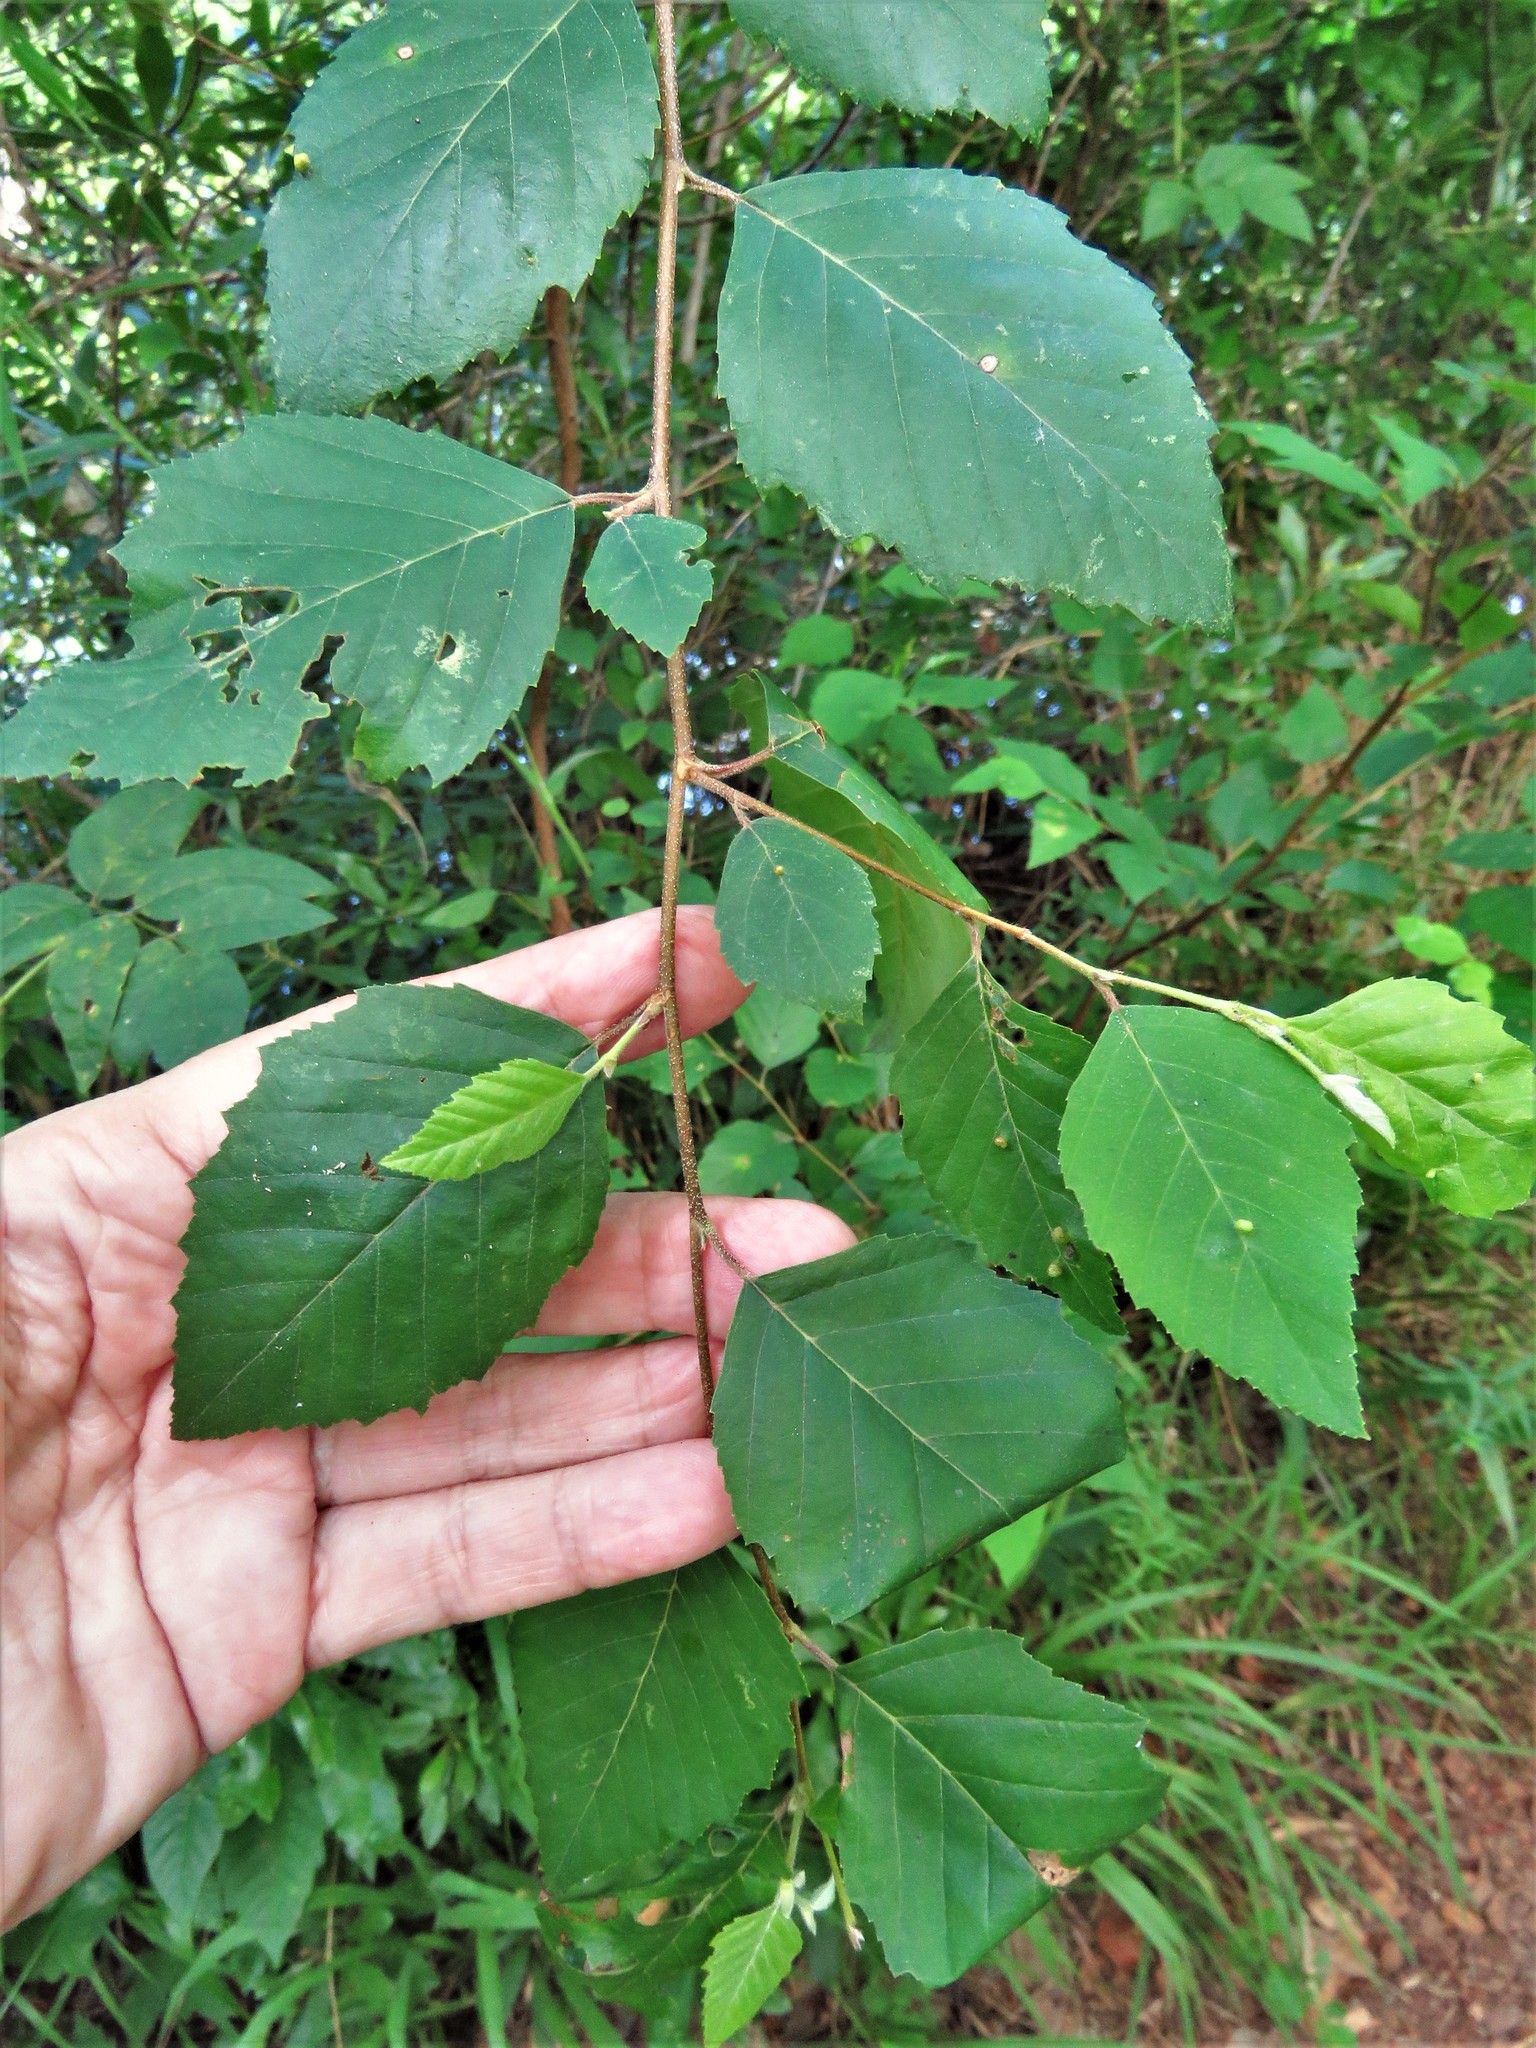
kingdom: Plantae
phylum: Tracheophyta
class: Magnoliopsida
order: Fagales
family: Betulaceae
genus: Betula
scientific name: Betula nigra
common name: Black birch
